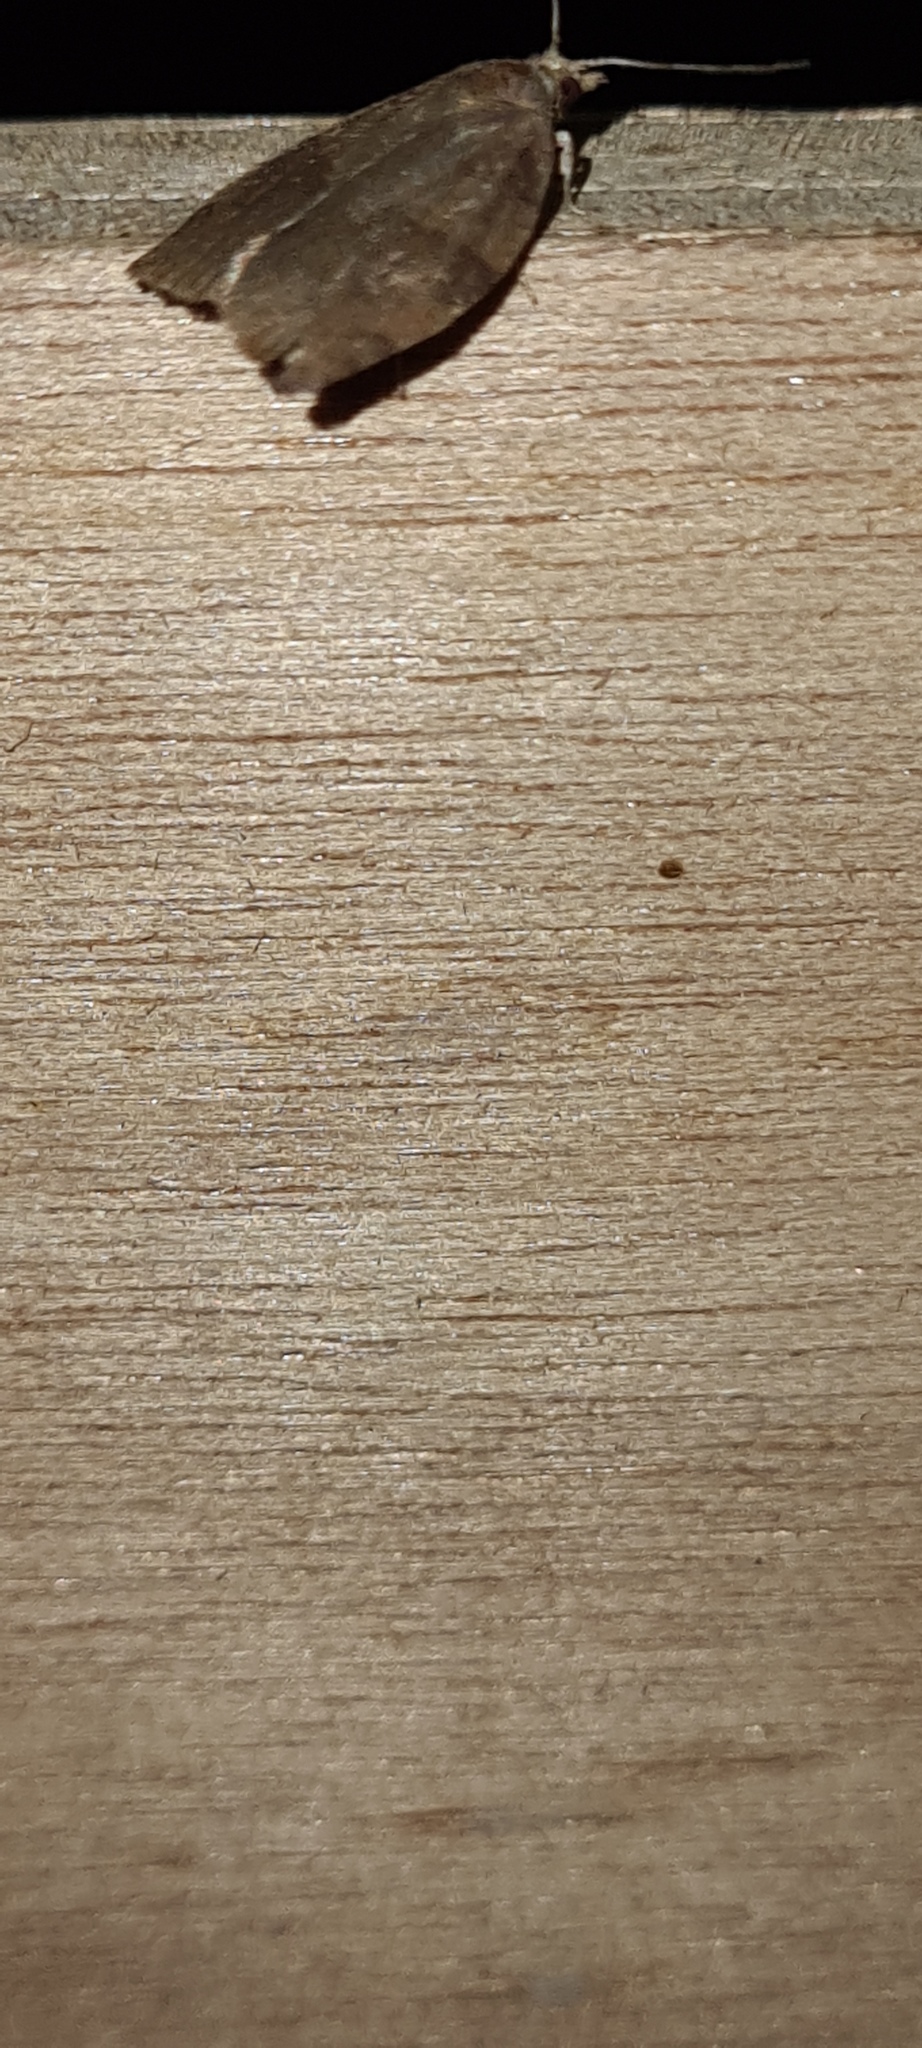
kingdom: Animalia
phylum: Arthropoda
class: Insecta
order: Lepidoptera
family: Tortricidae
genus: Pandemis
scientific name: Pandemis heparana
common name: Dark fruit-tree tortrix
